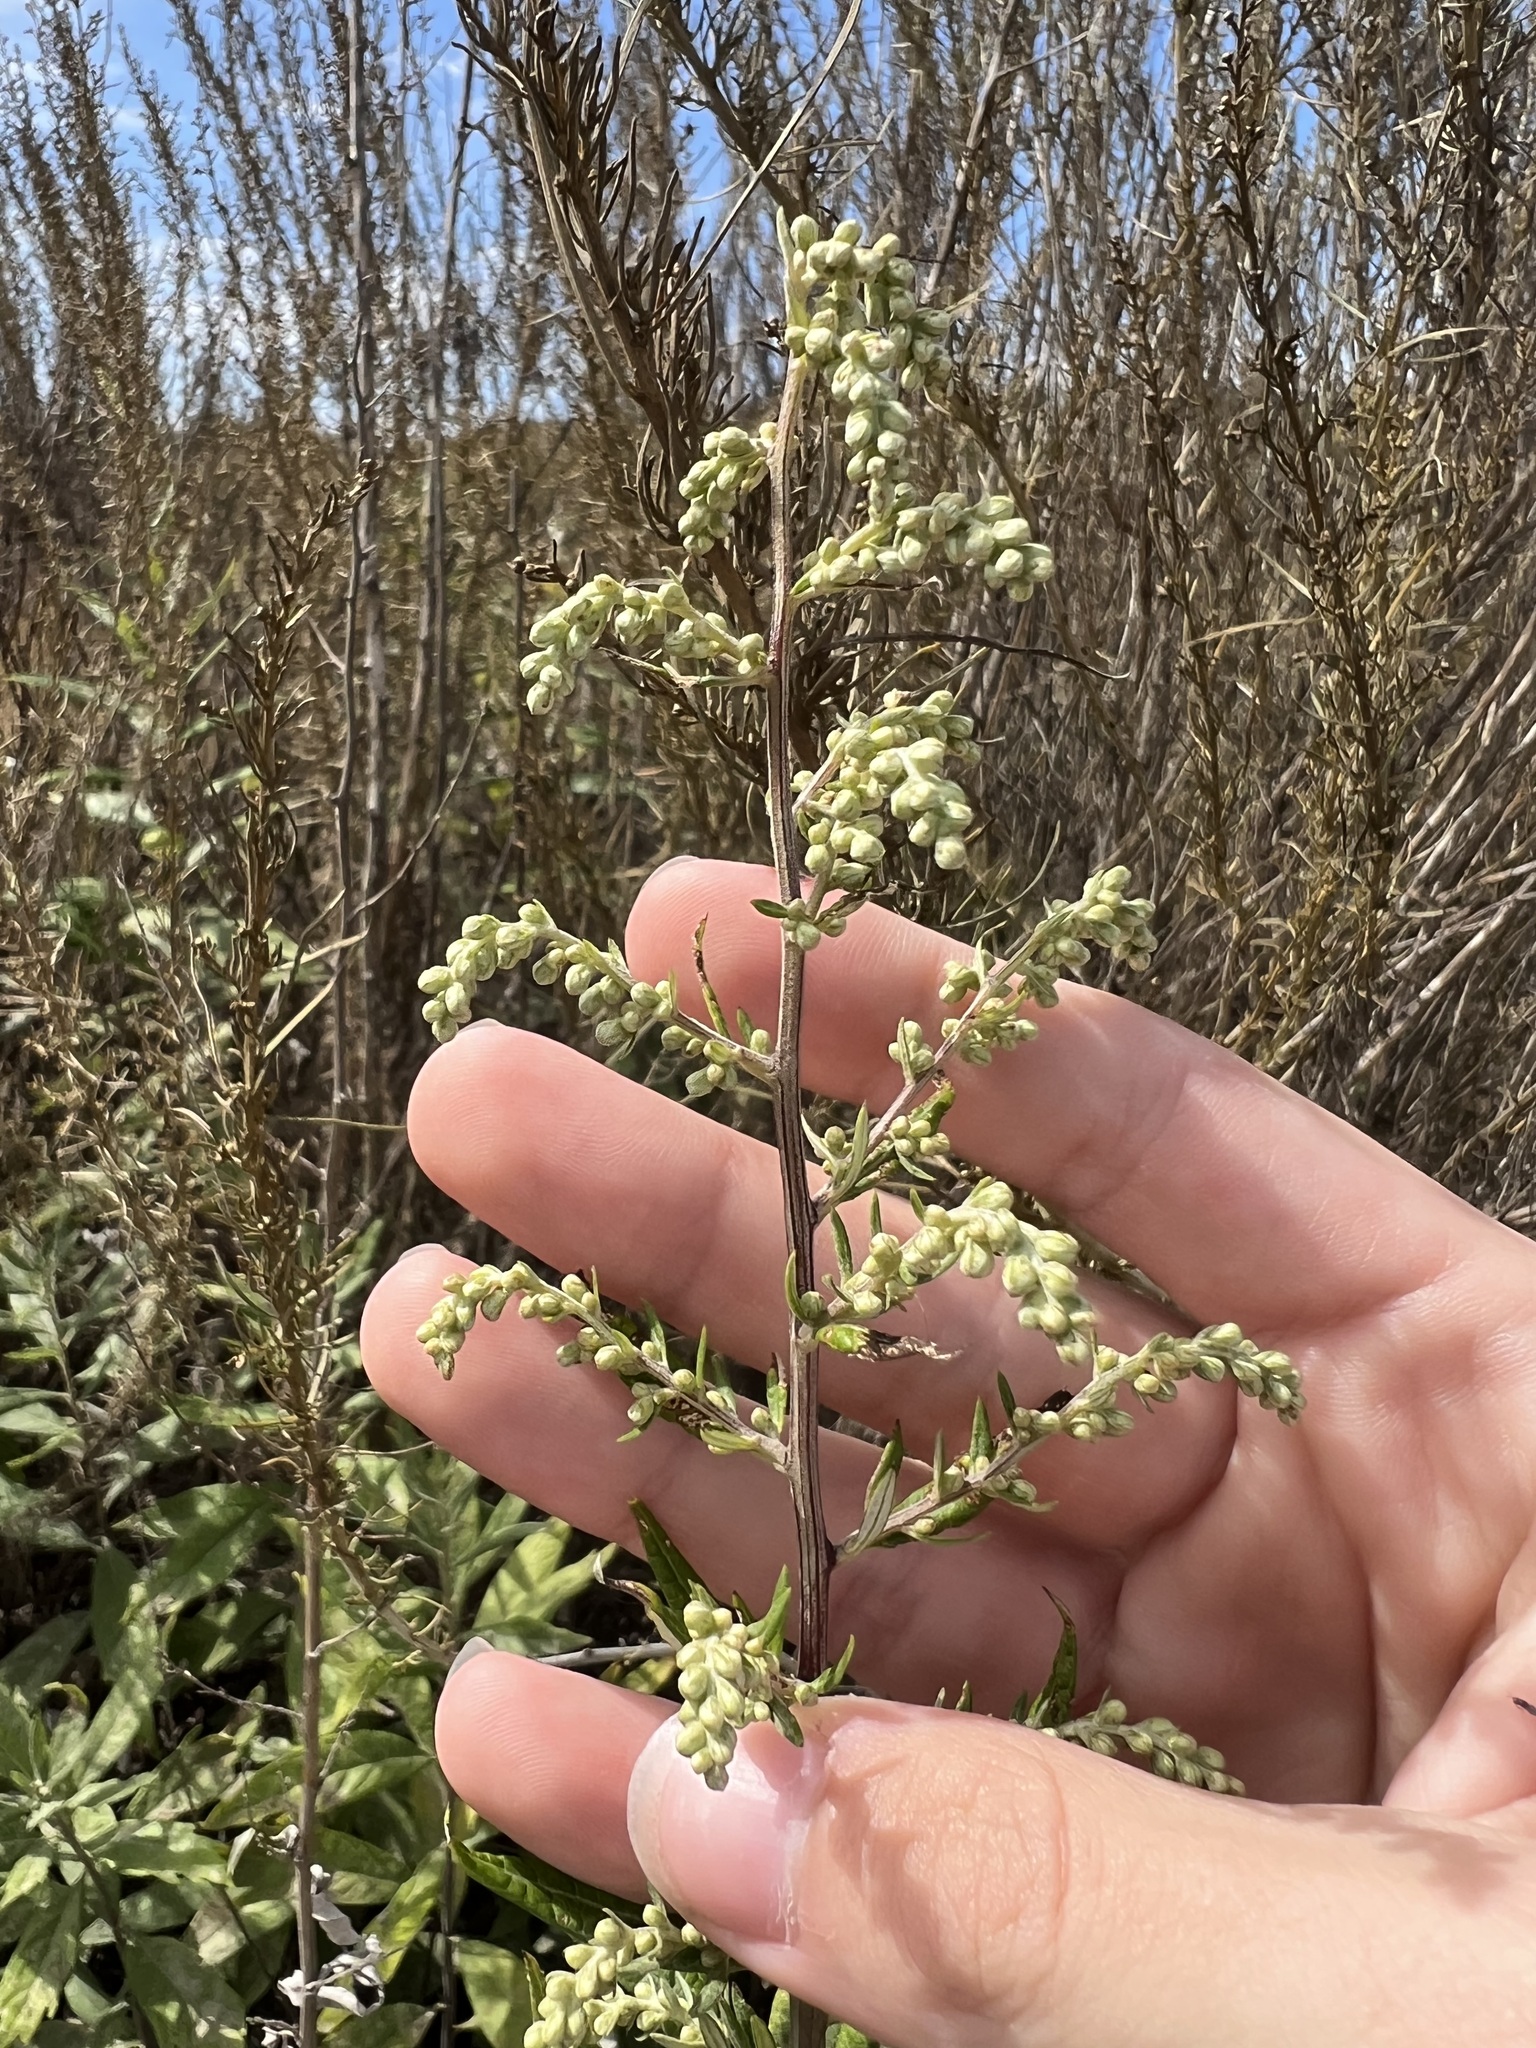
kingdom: Plantae
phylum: Tracheophyta
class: Magnoliopsida
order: Asterales
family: Asteraceae
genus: Artemisia
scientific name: Artemisia douglasiana
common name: Northwest mugwort
